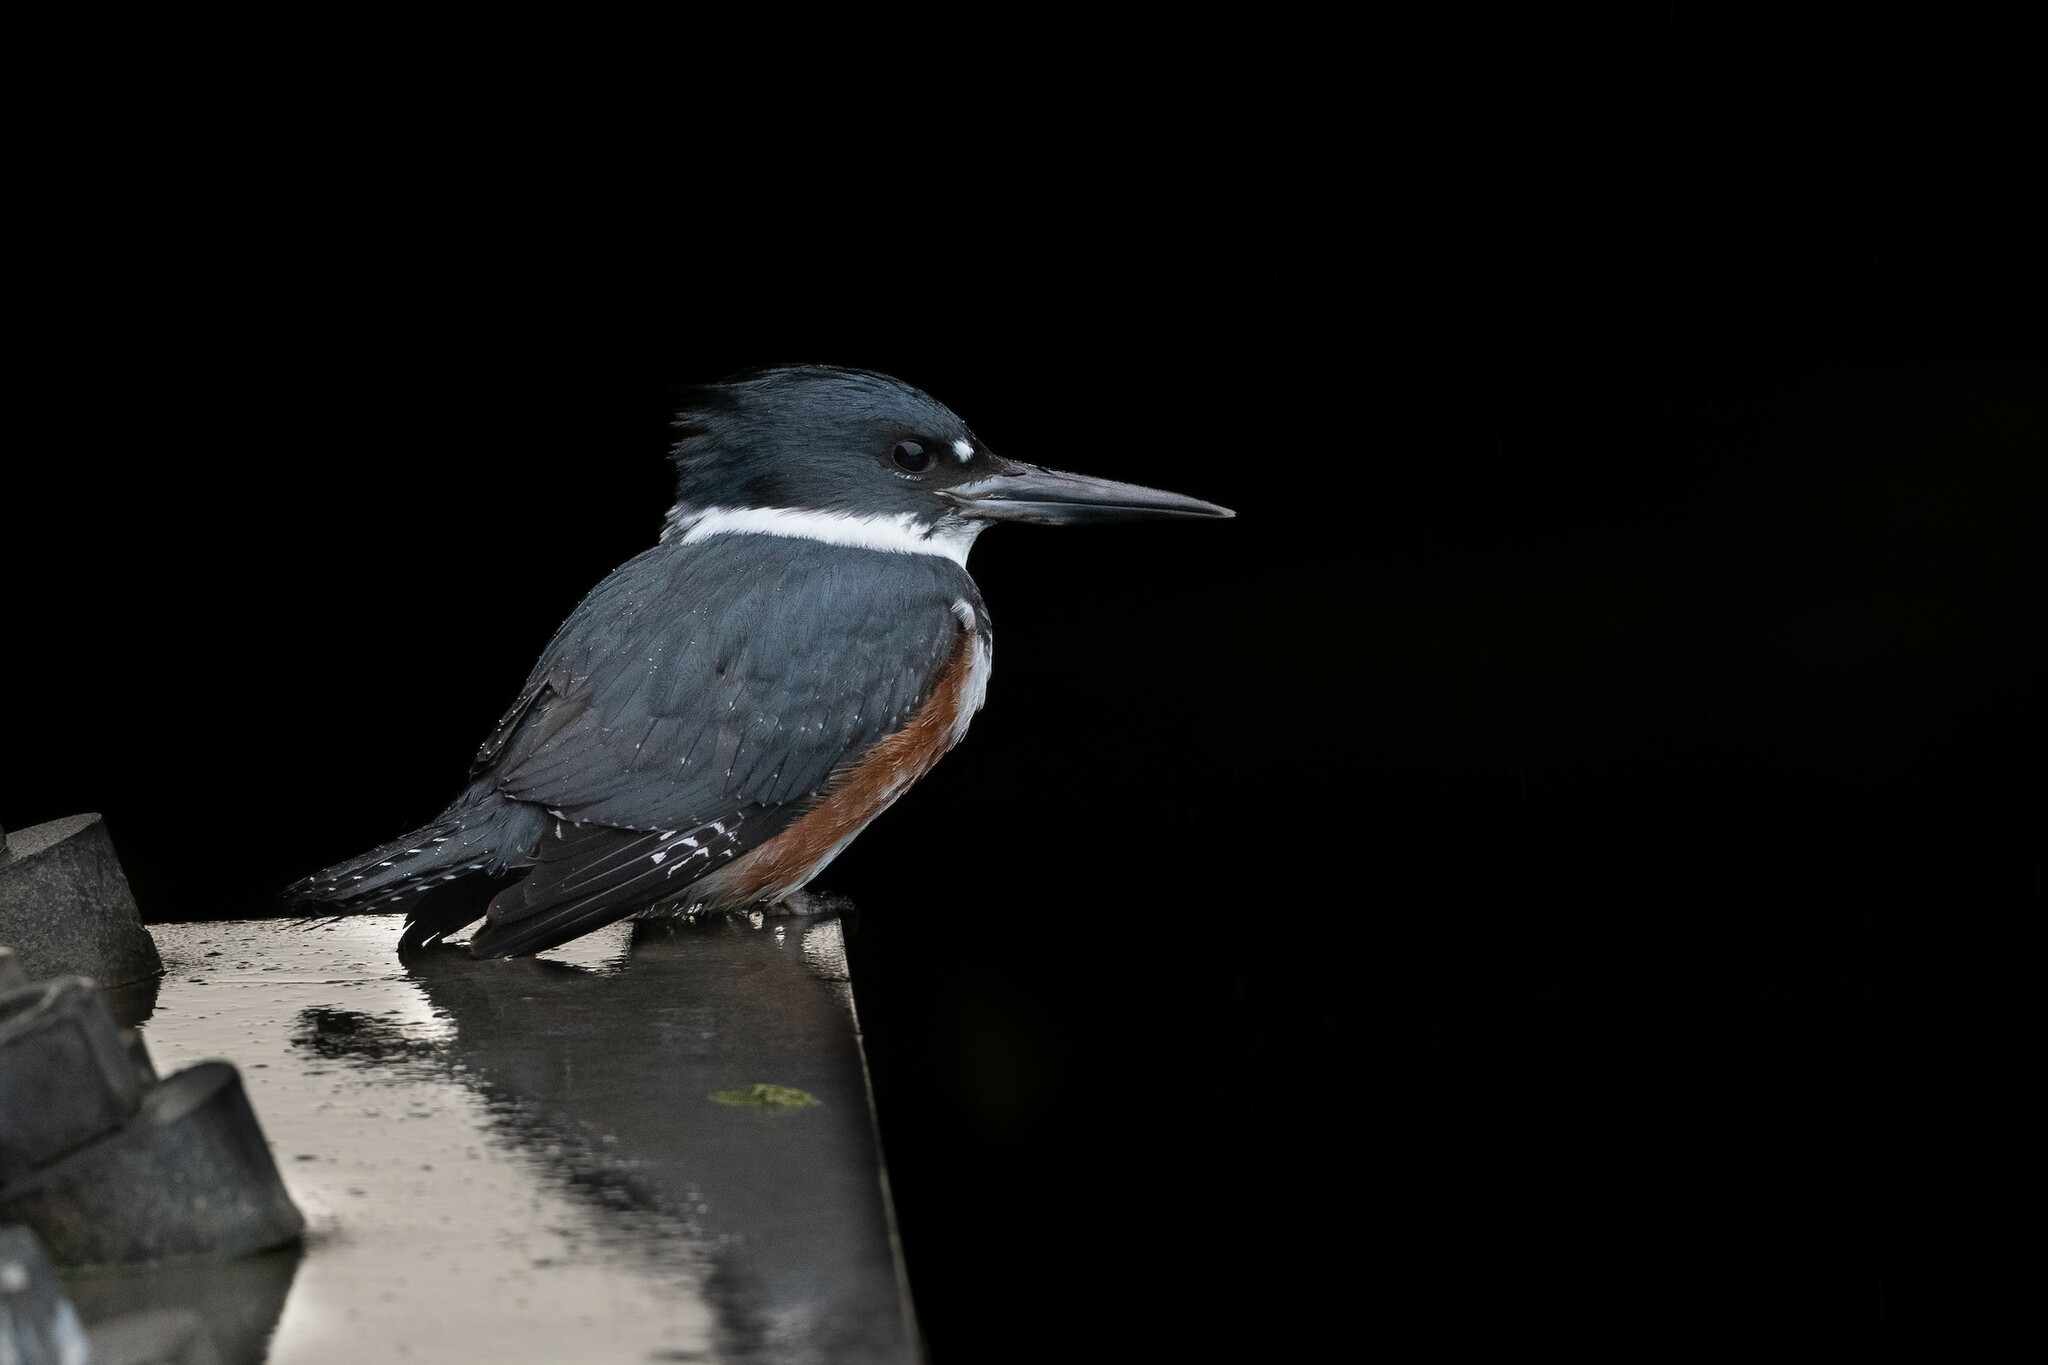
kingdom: Animalia
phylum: Chordata
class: Aves
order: Coraciiformes
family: Alcedinidae
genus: Megaceryle
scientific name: Megaceryle alcyon
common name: Belted kingfisher
